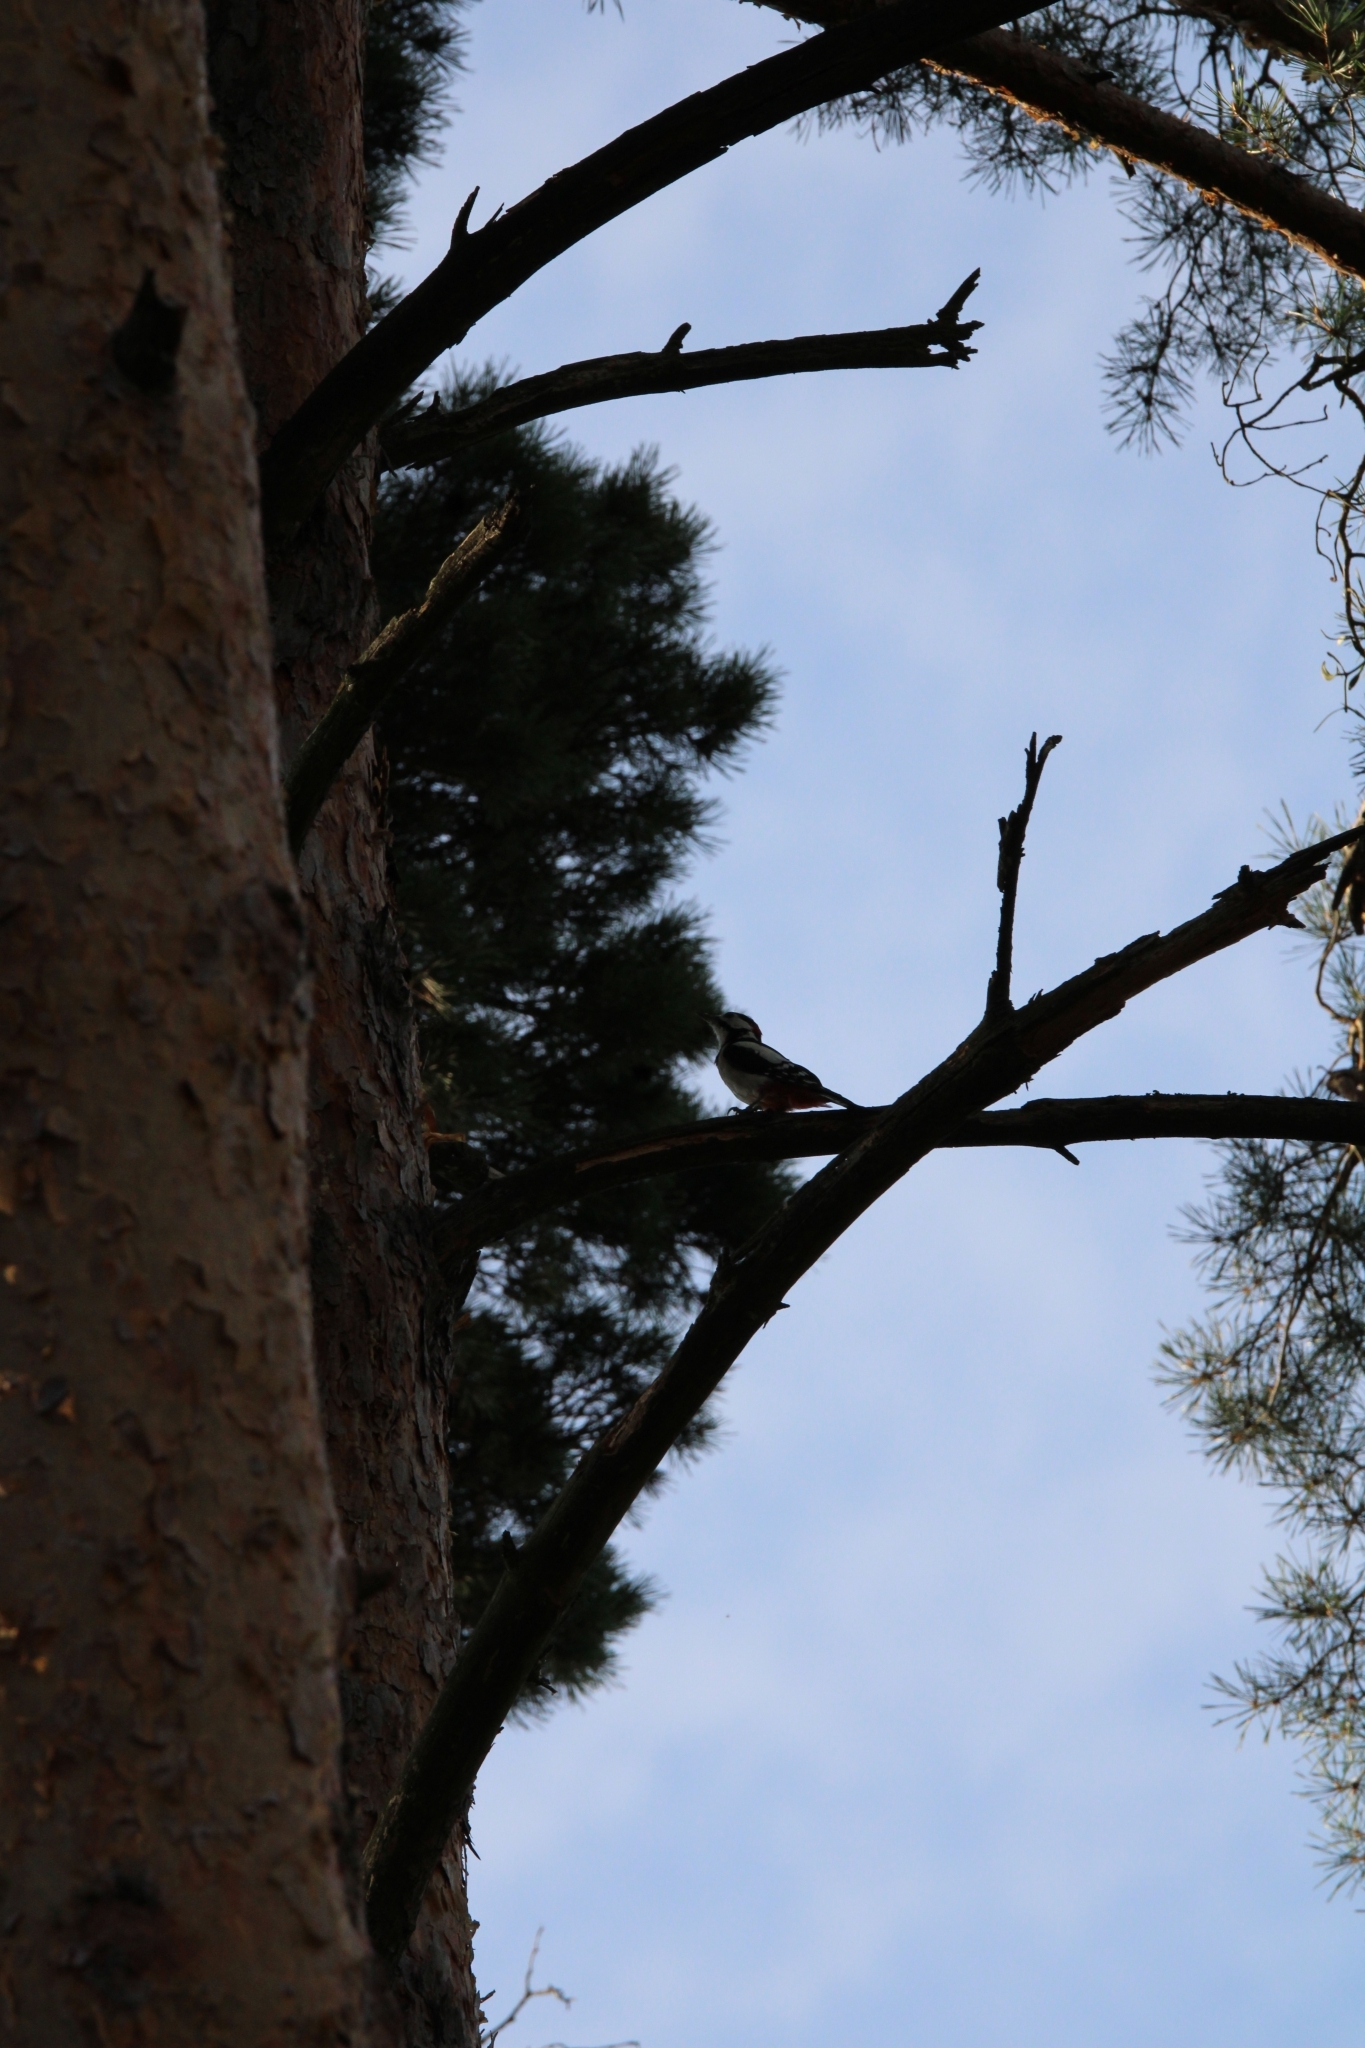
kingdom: Animalia
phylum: Chordata
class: Aves
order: Piciformes
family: Picidae
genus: Dendrocopos
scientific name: Dendrocopos major
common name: Great spotted woodpecker
